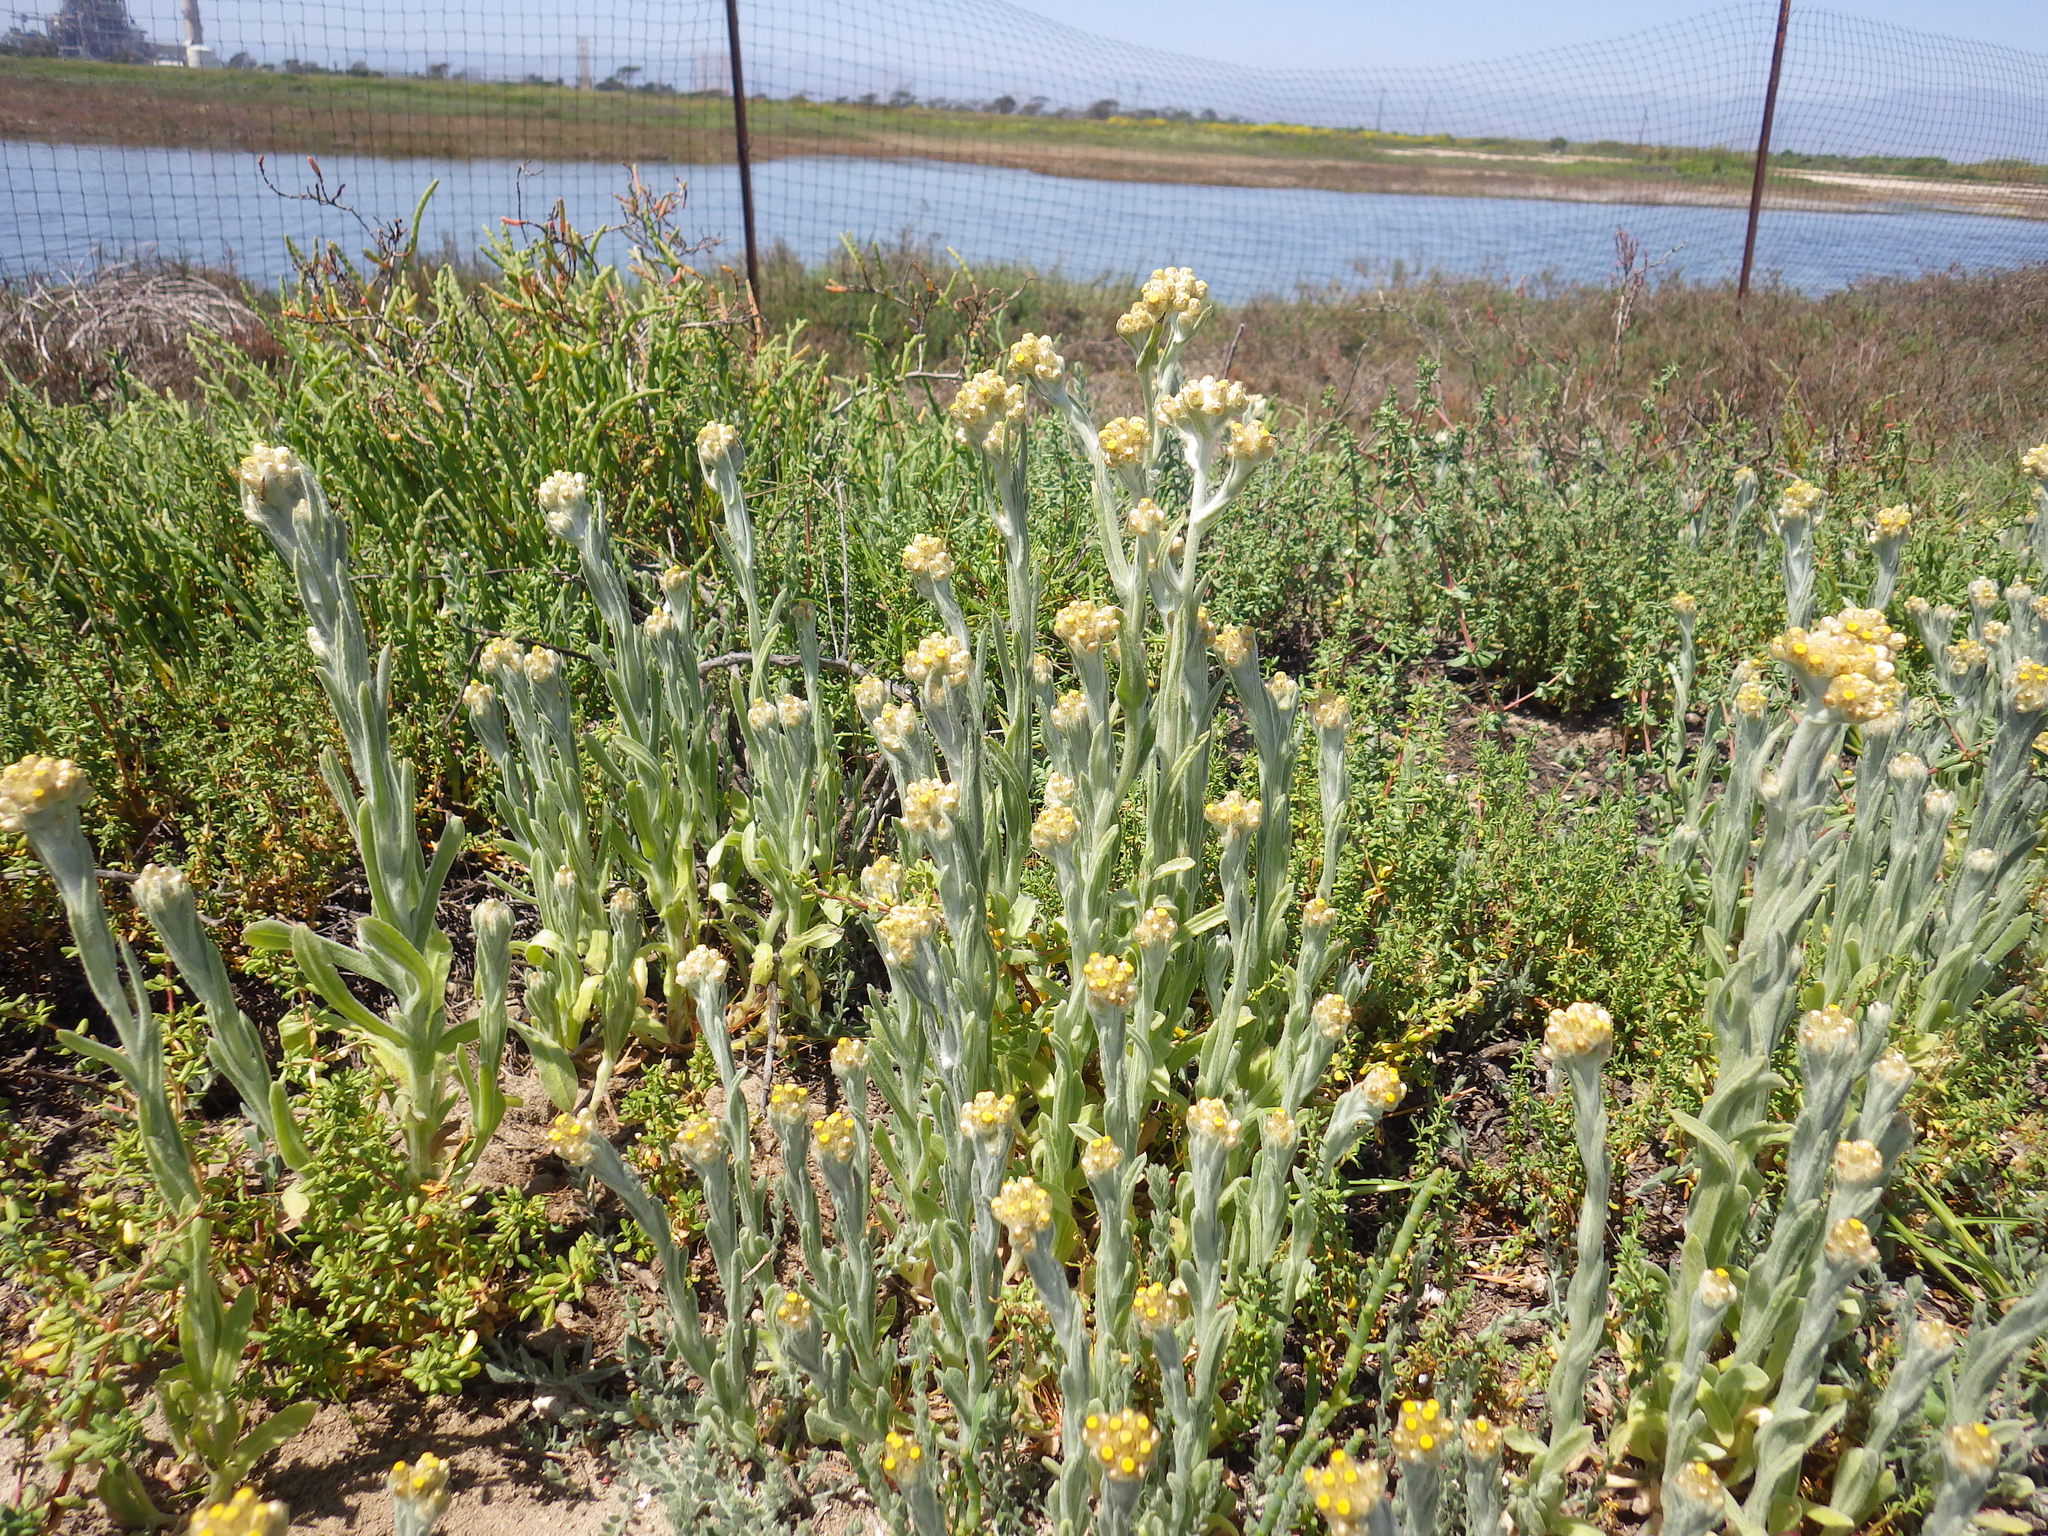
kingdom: Plantae
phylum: Tracheophyta
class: Magnoliopsida
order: Asterales
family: Asteraceae
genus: Pseudognaphalium
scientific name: Pseudognaphalium stramineum
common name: Cotton-batting-plant
